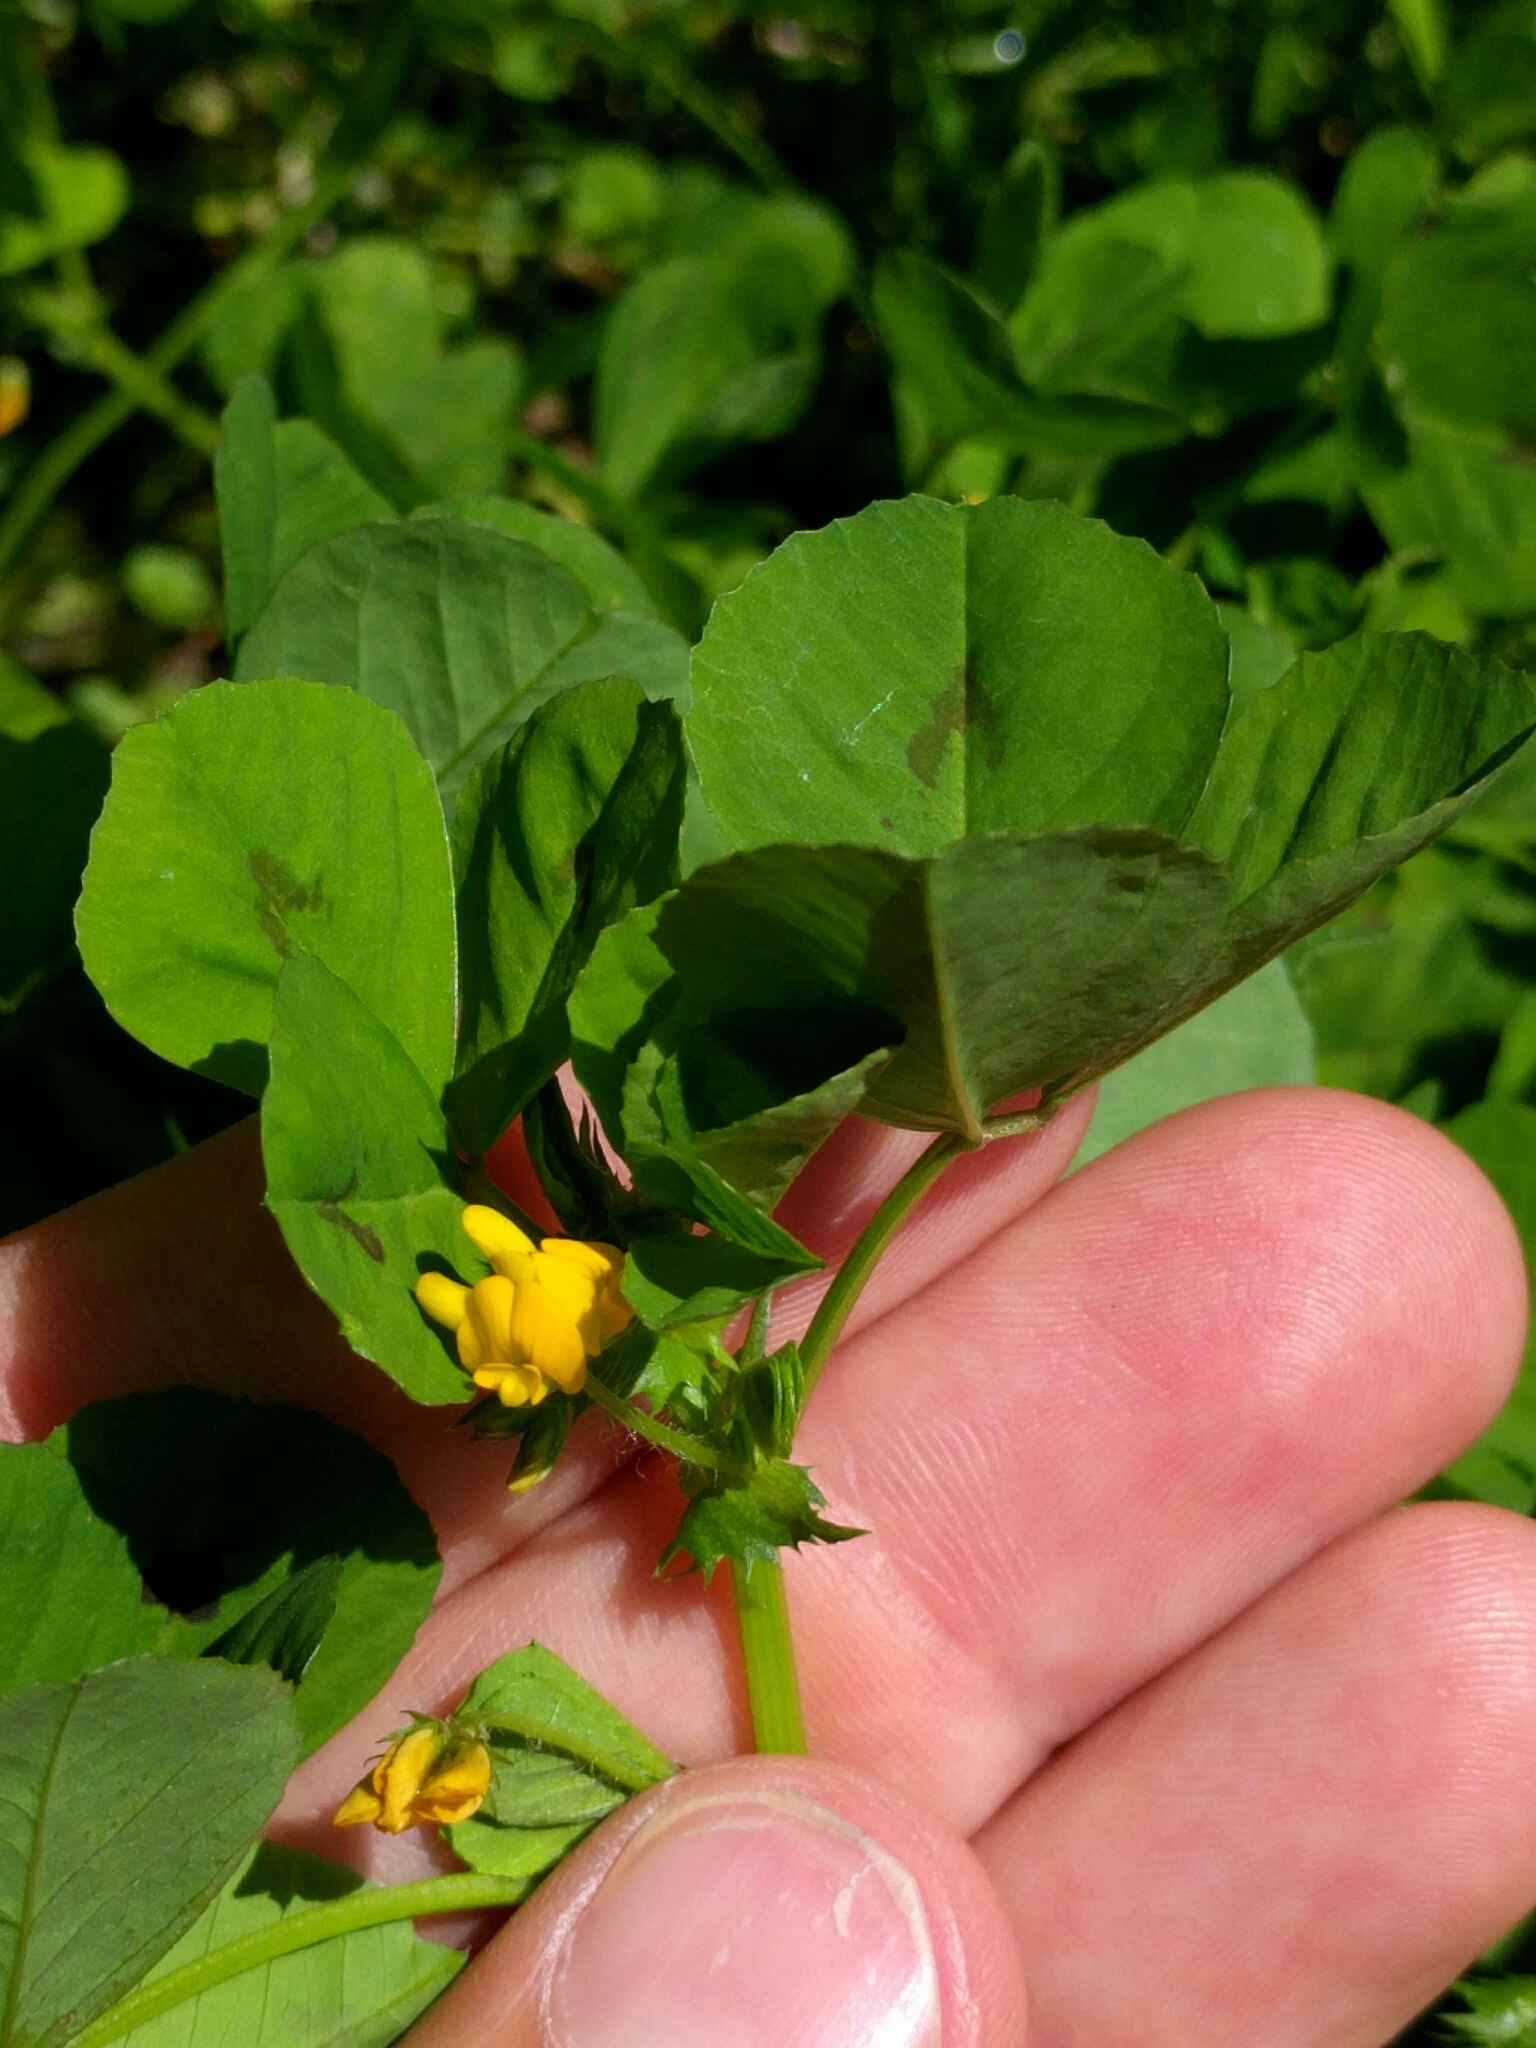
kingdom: Plantae
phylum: Tracheophyta
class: Magnoliopsida
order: Fabales
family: Fabaceae
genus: Medicago
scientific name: Medicago arabica
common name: Spotted medick
